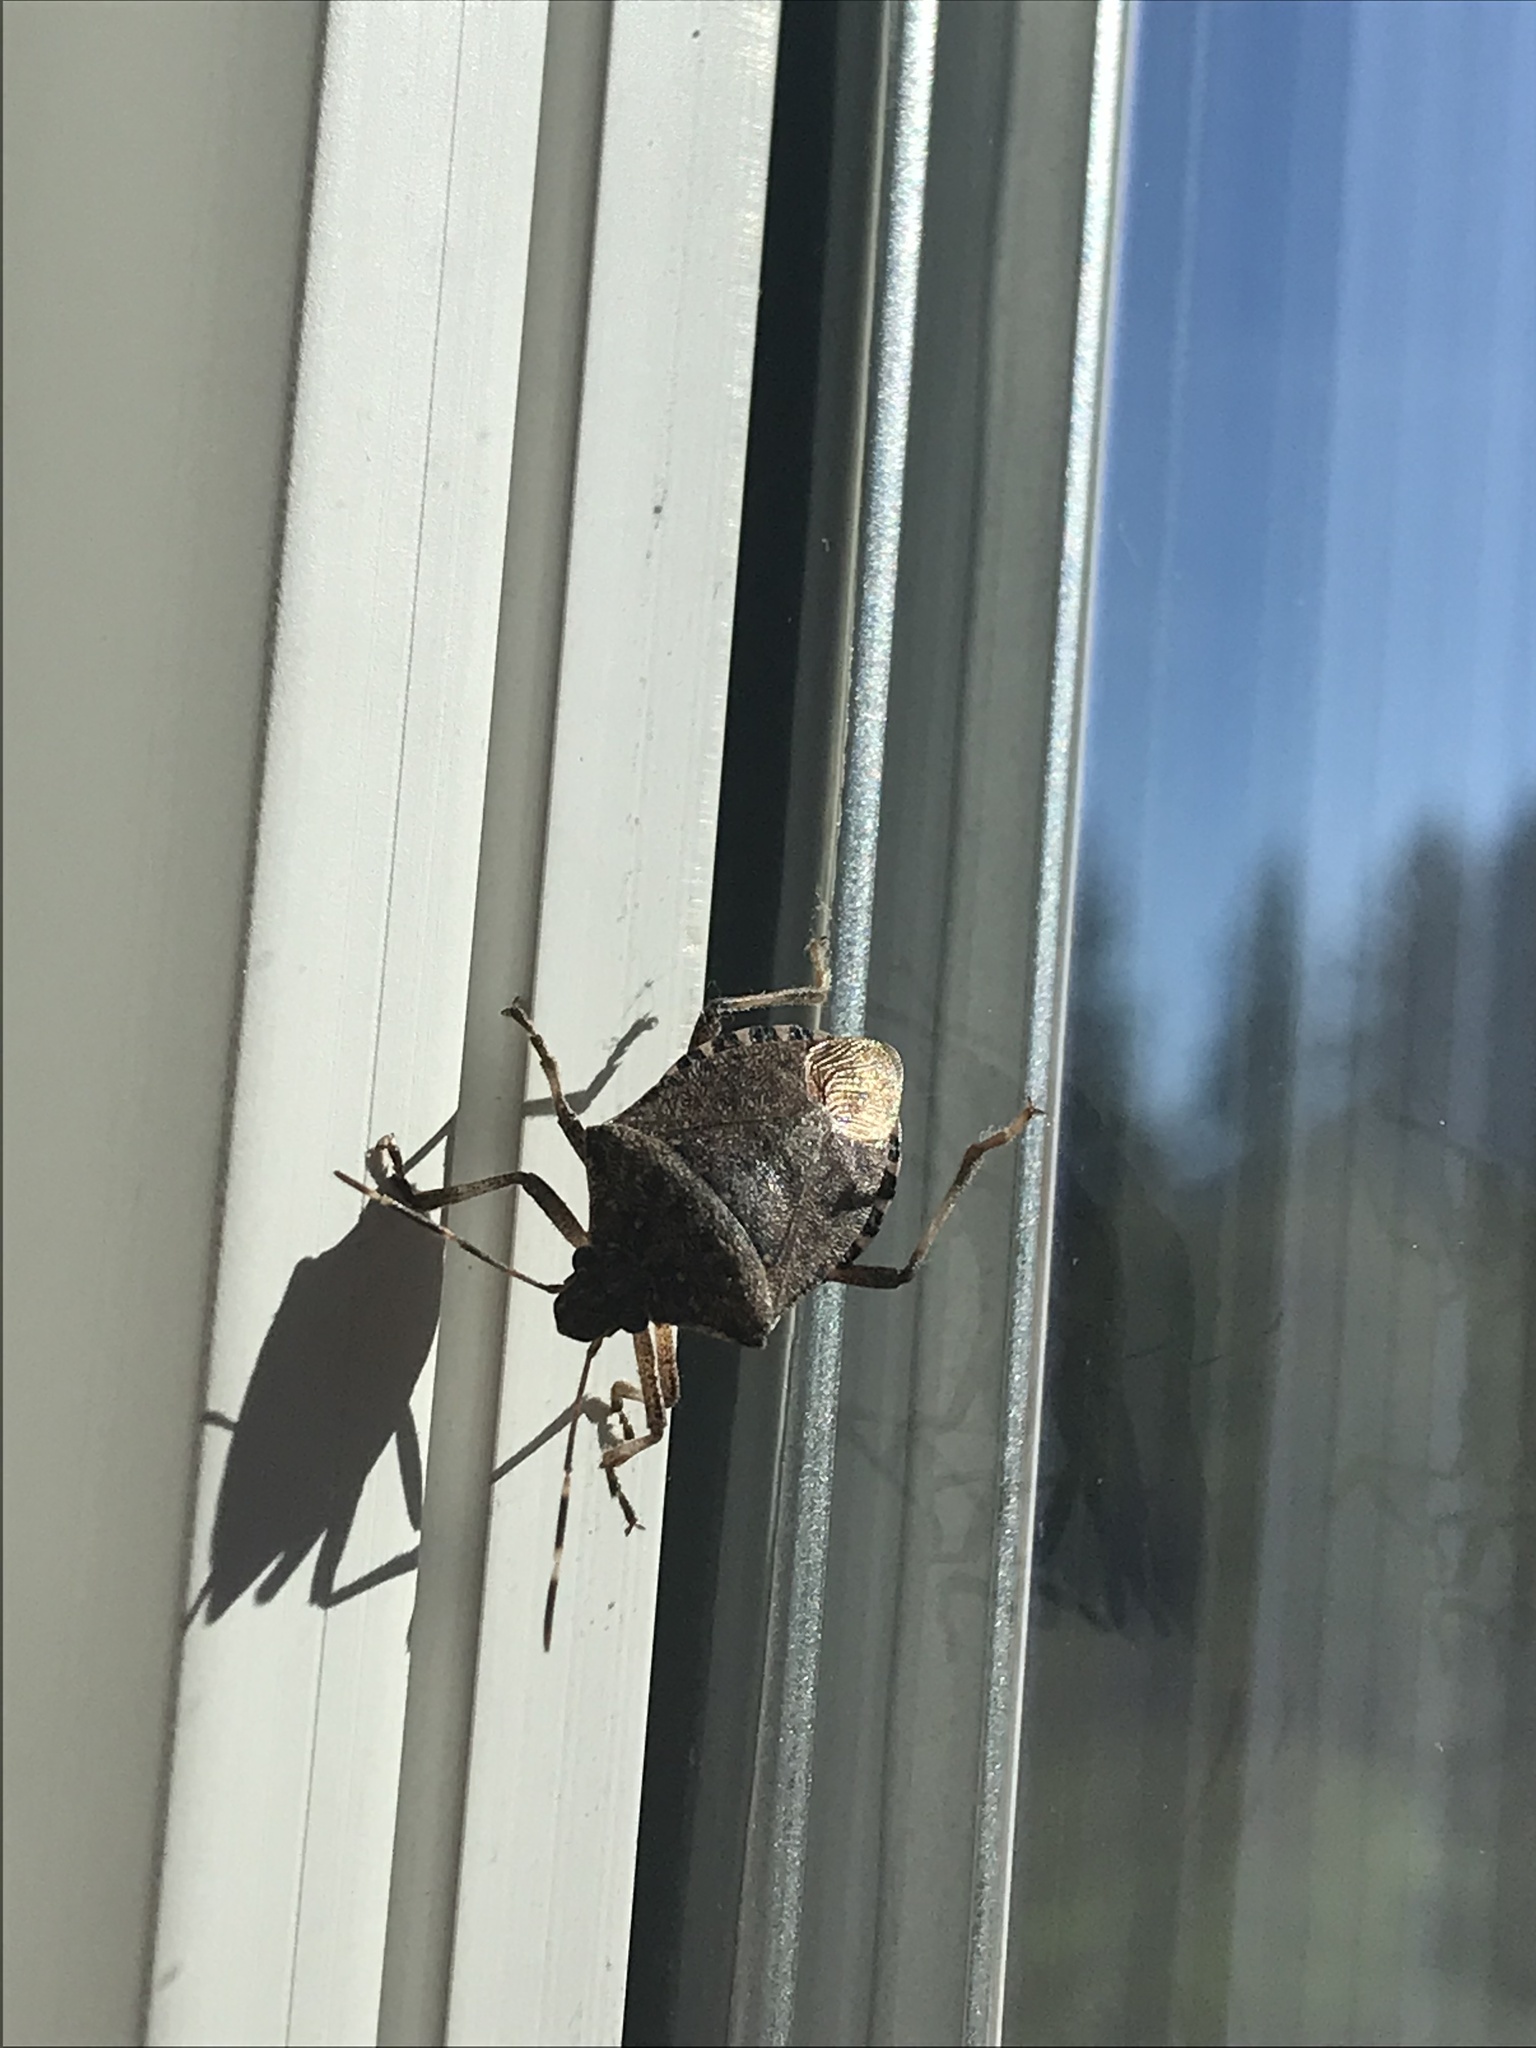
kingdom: Animalia
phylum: Arthropoda
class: Insecta
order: Hemiptera
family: Pentatomidae
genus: Halyomorpha
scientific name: Halyomorpha halys
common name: Brown marmorated stink bug
